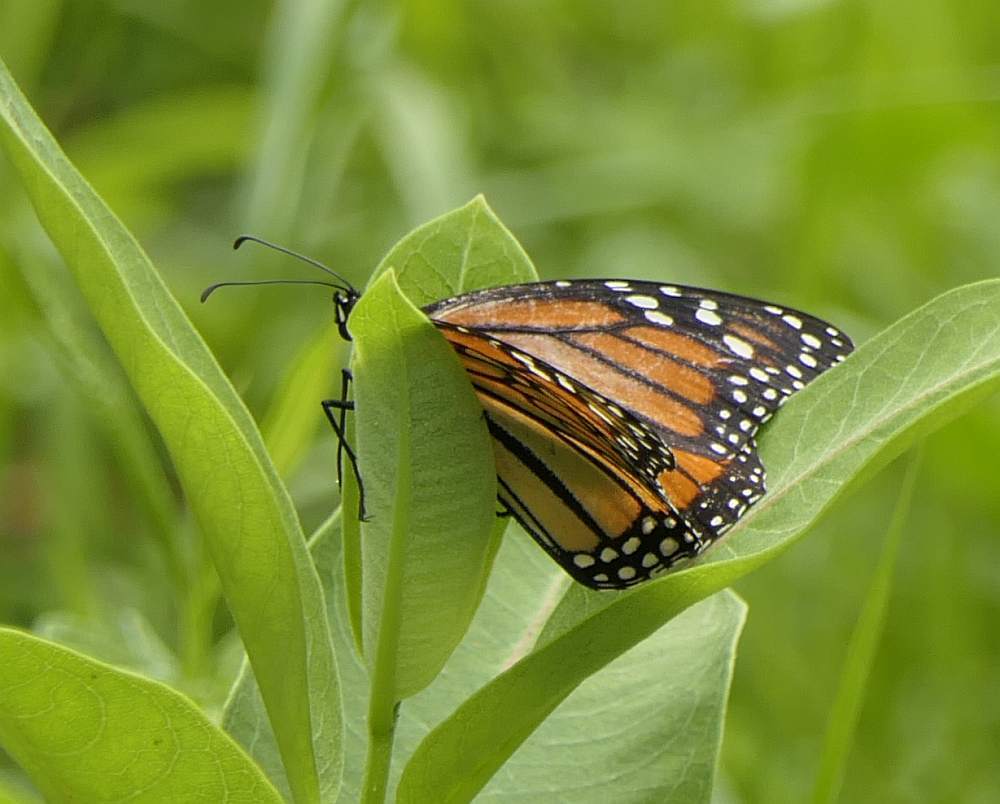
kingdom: Animalia
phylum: Arthropoda
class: Insecta
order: Lepidoptera
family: Nymphalidae
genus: Danaus
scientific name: Danaus plexippus
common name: Monarch
